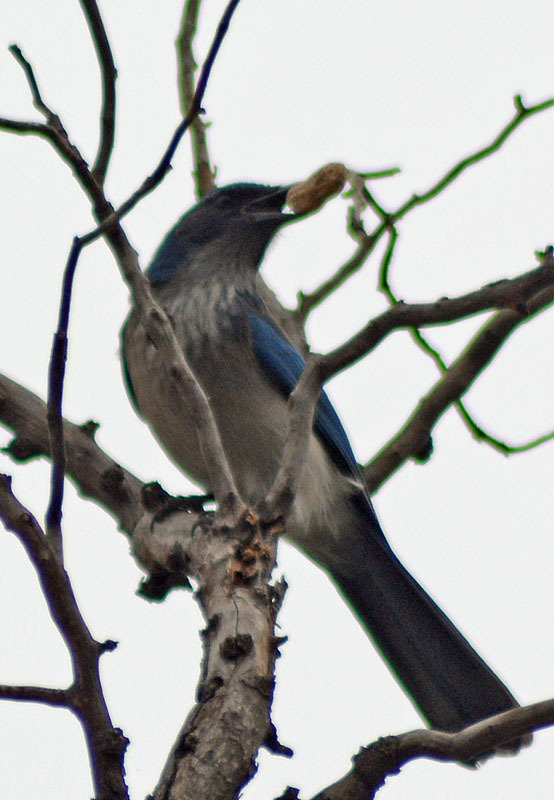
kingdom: Animalia
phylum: Chordata
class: Aves
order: Passeriformes
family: Corvidae
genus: Aphelocoma
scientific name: Aphelocoma woodhouseii
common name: Woodhouse's scrub-jay
